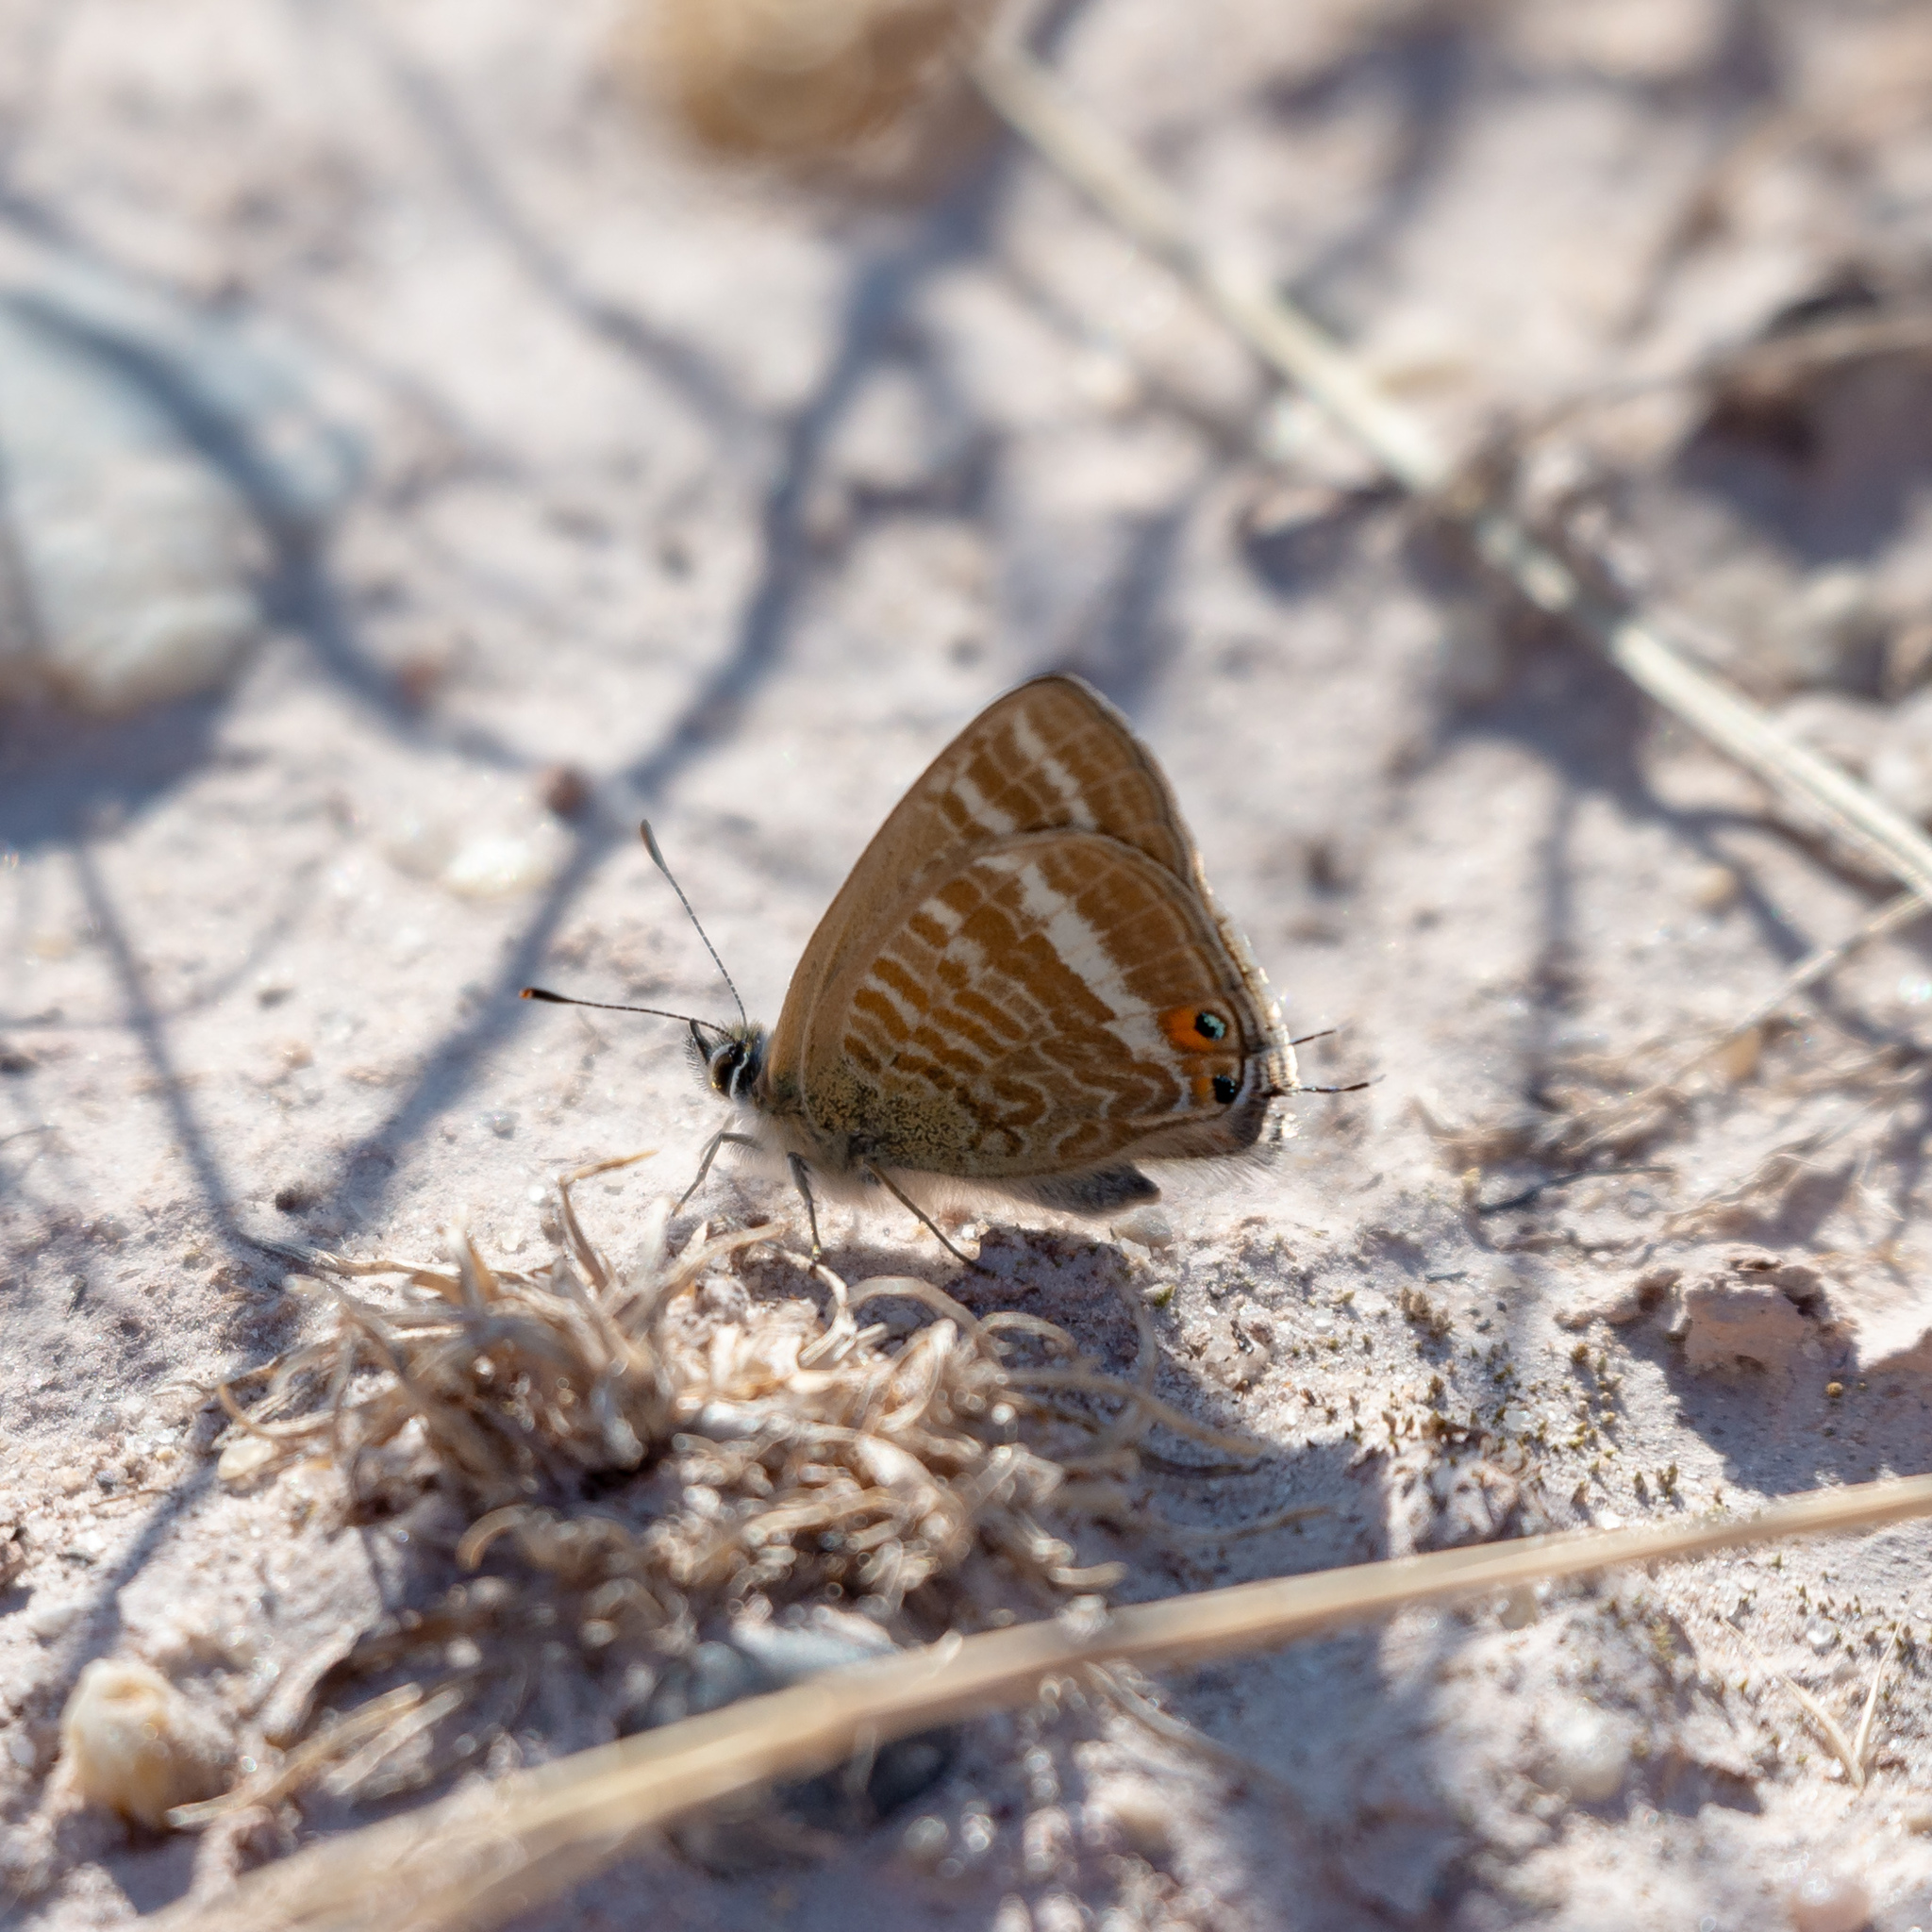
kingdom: Animalia
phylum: Arthropoda
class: Insecta
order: Lepidoptera
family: Lycaenidae
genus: Lampides
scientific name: Lampides boeticus
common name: Long-tailed blue
